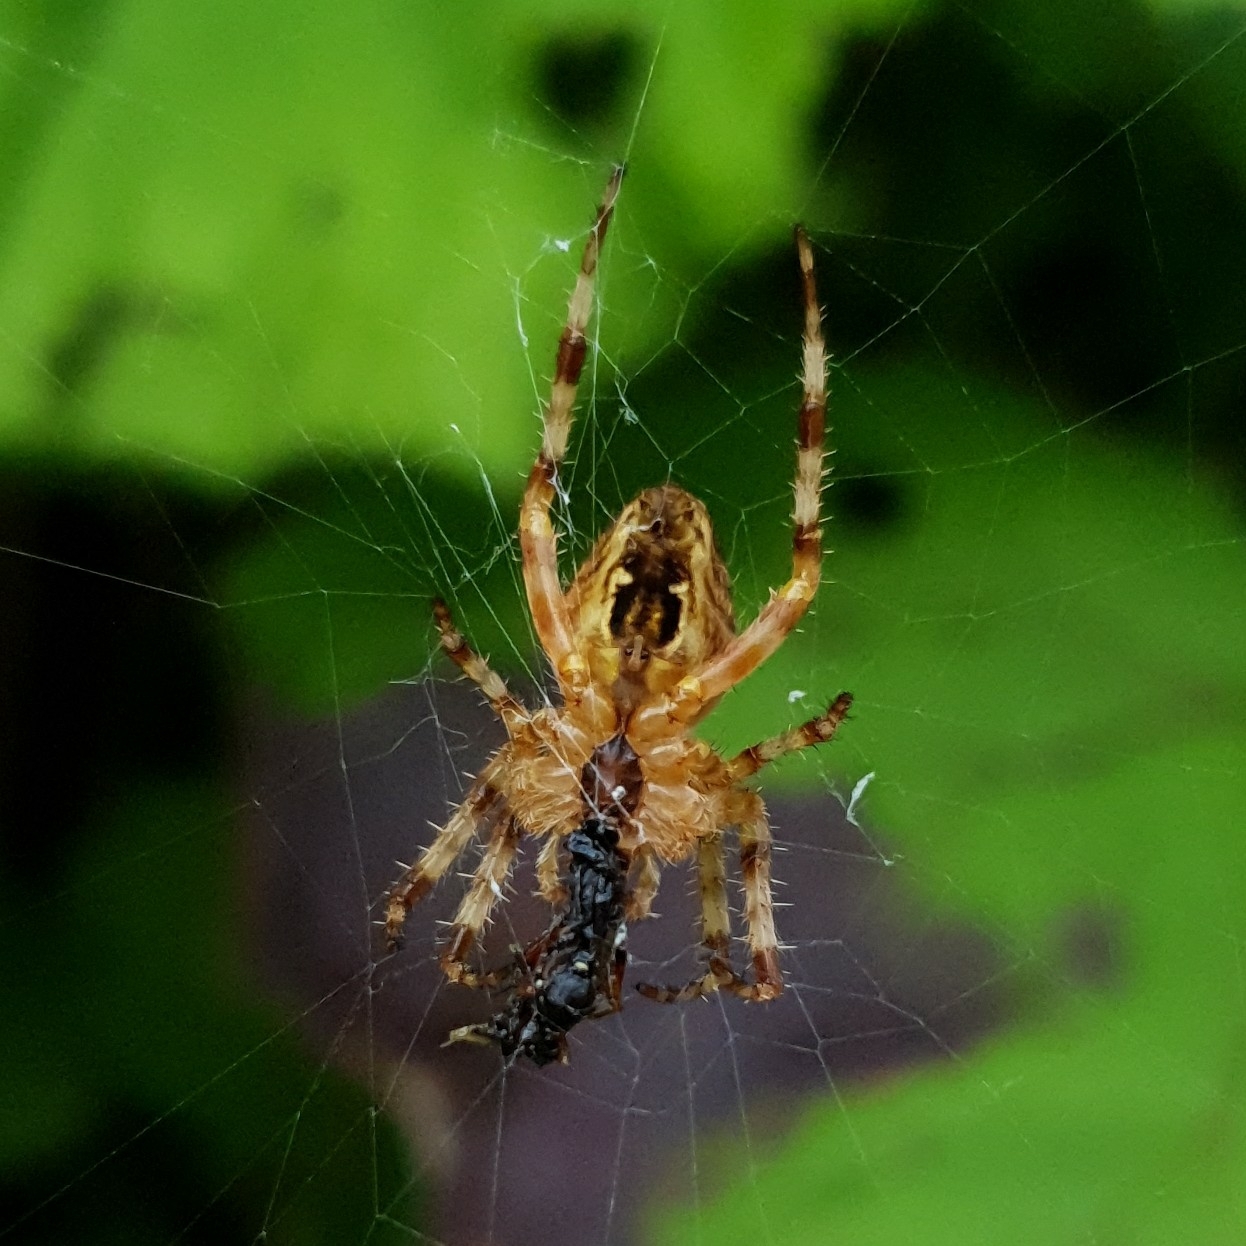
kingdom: Animalia
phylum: Arthropoda
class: Arachnida
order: Araneae
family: Araneidae
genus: Araneus
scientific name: Araneus diadematus
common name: Cross orbweaver
